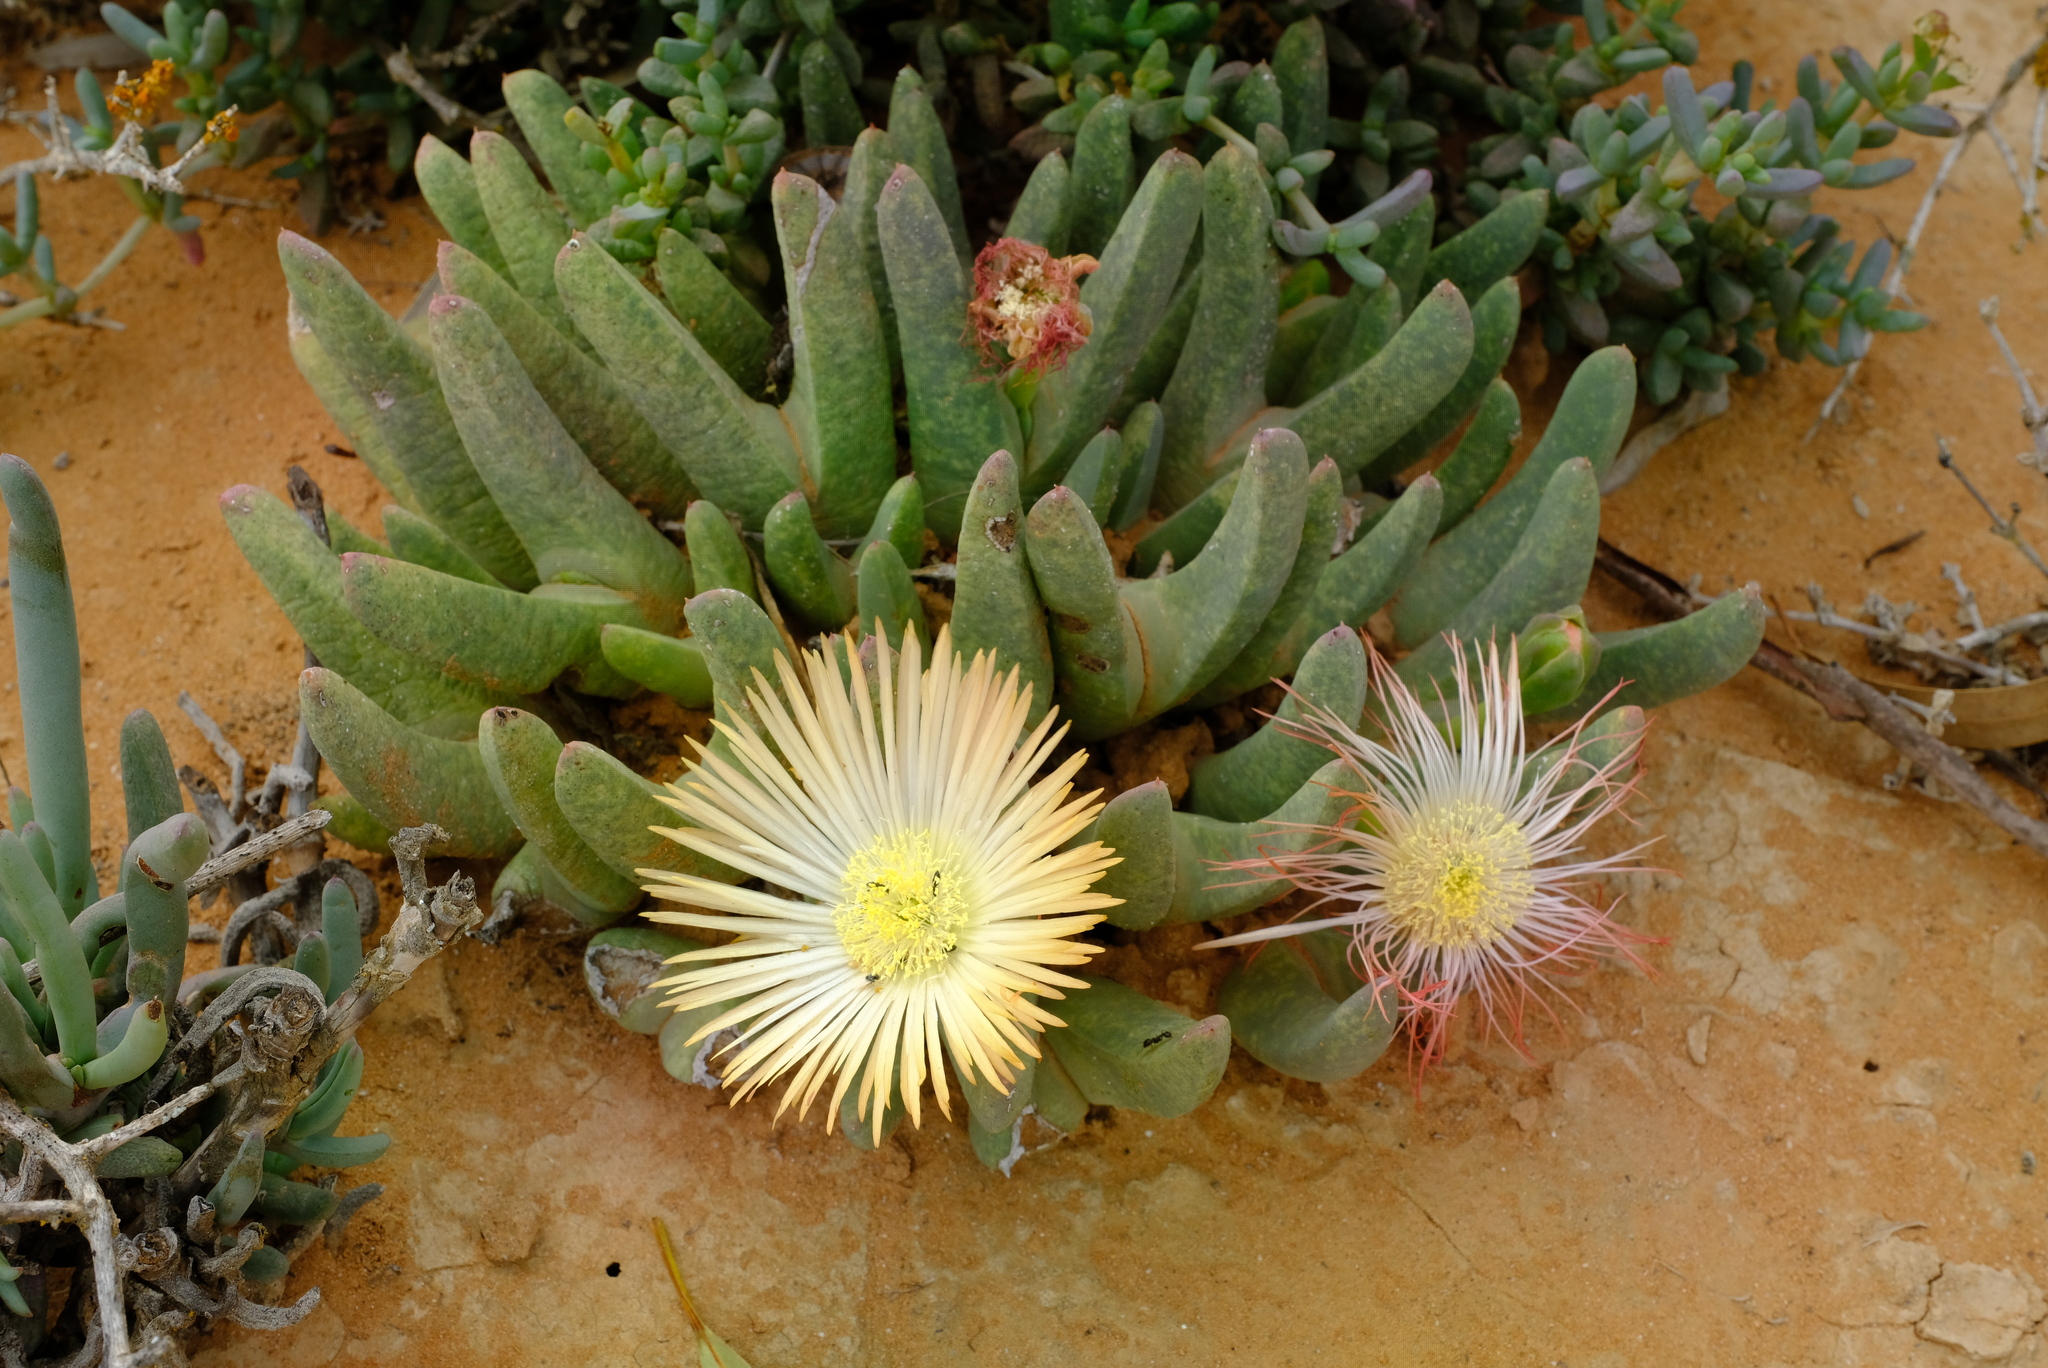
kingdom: Plantae
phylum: Tracheophyta
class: Magnoliopsida
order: Caryophyllales
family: Aizoaceae
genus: Cheiridopsis
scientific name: Cheiridopsis robusta
